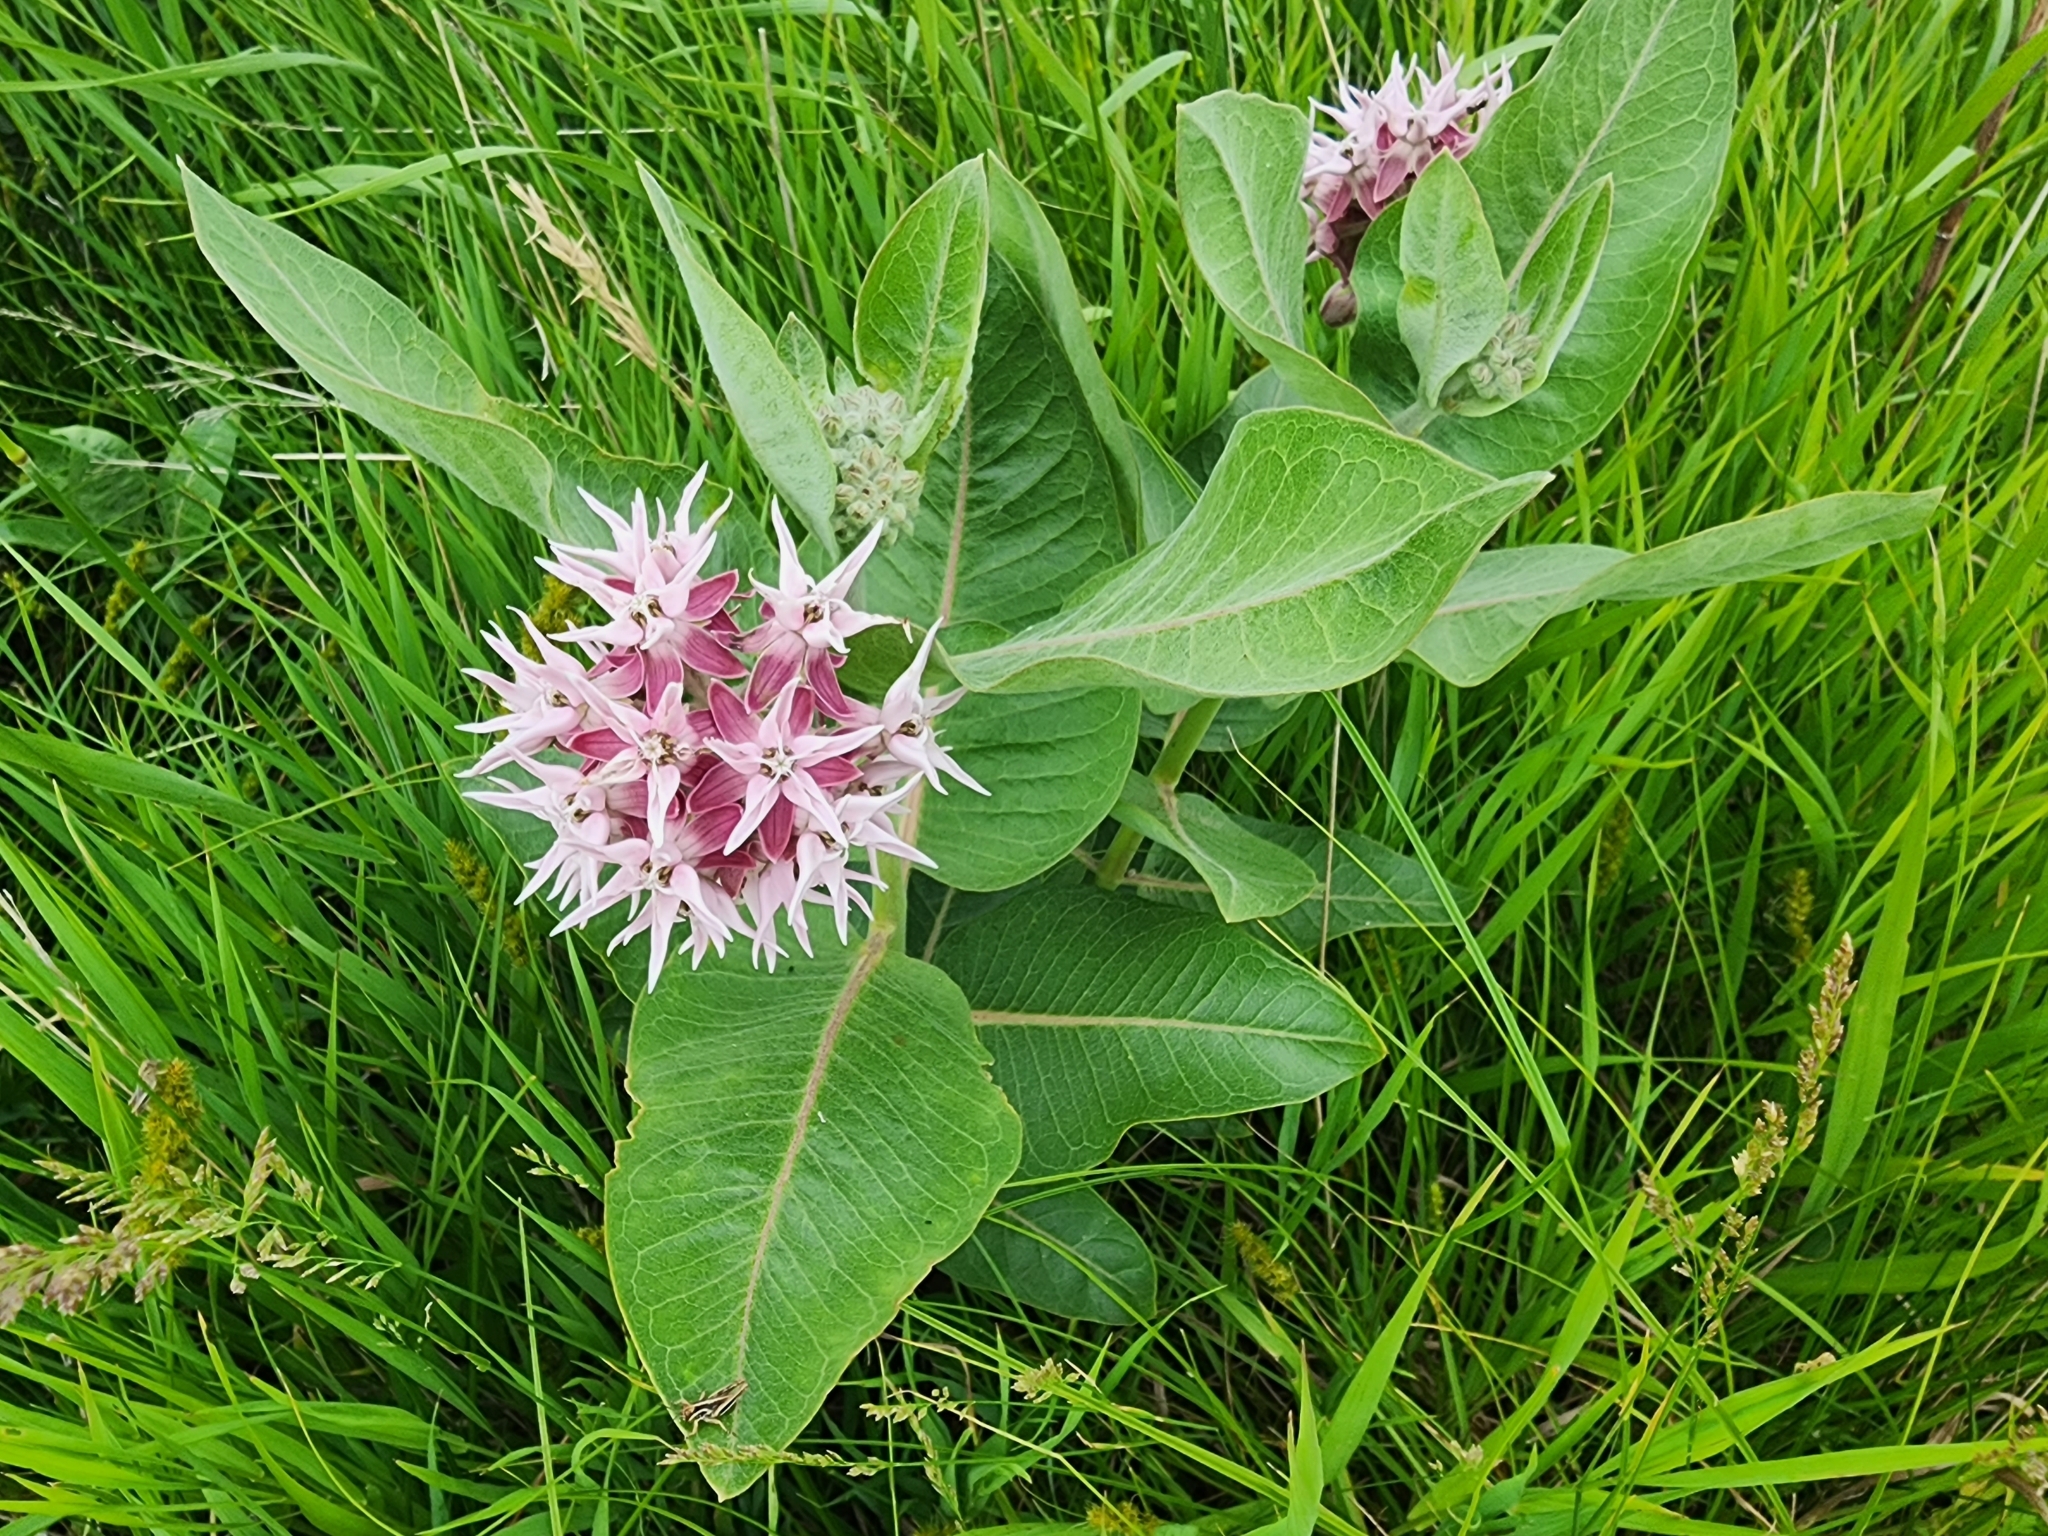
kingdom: Plantae
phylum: Tracheophyta
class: Magnoliopsida
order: Gentianales
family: Apocynaceae
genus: Asclepias
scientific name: Asclepias speciosa
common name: Showy milkweed
